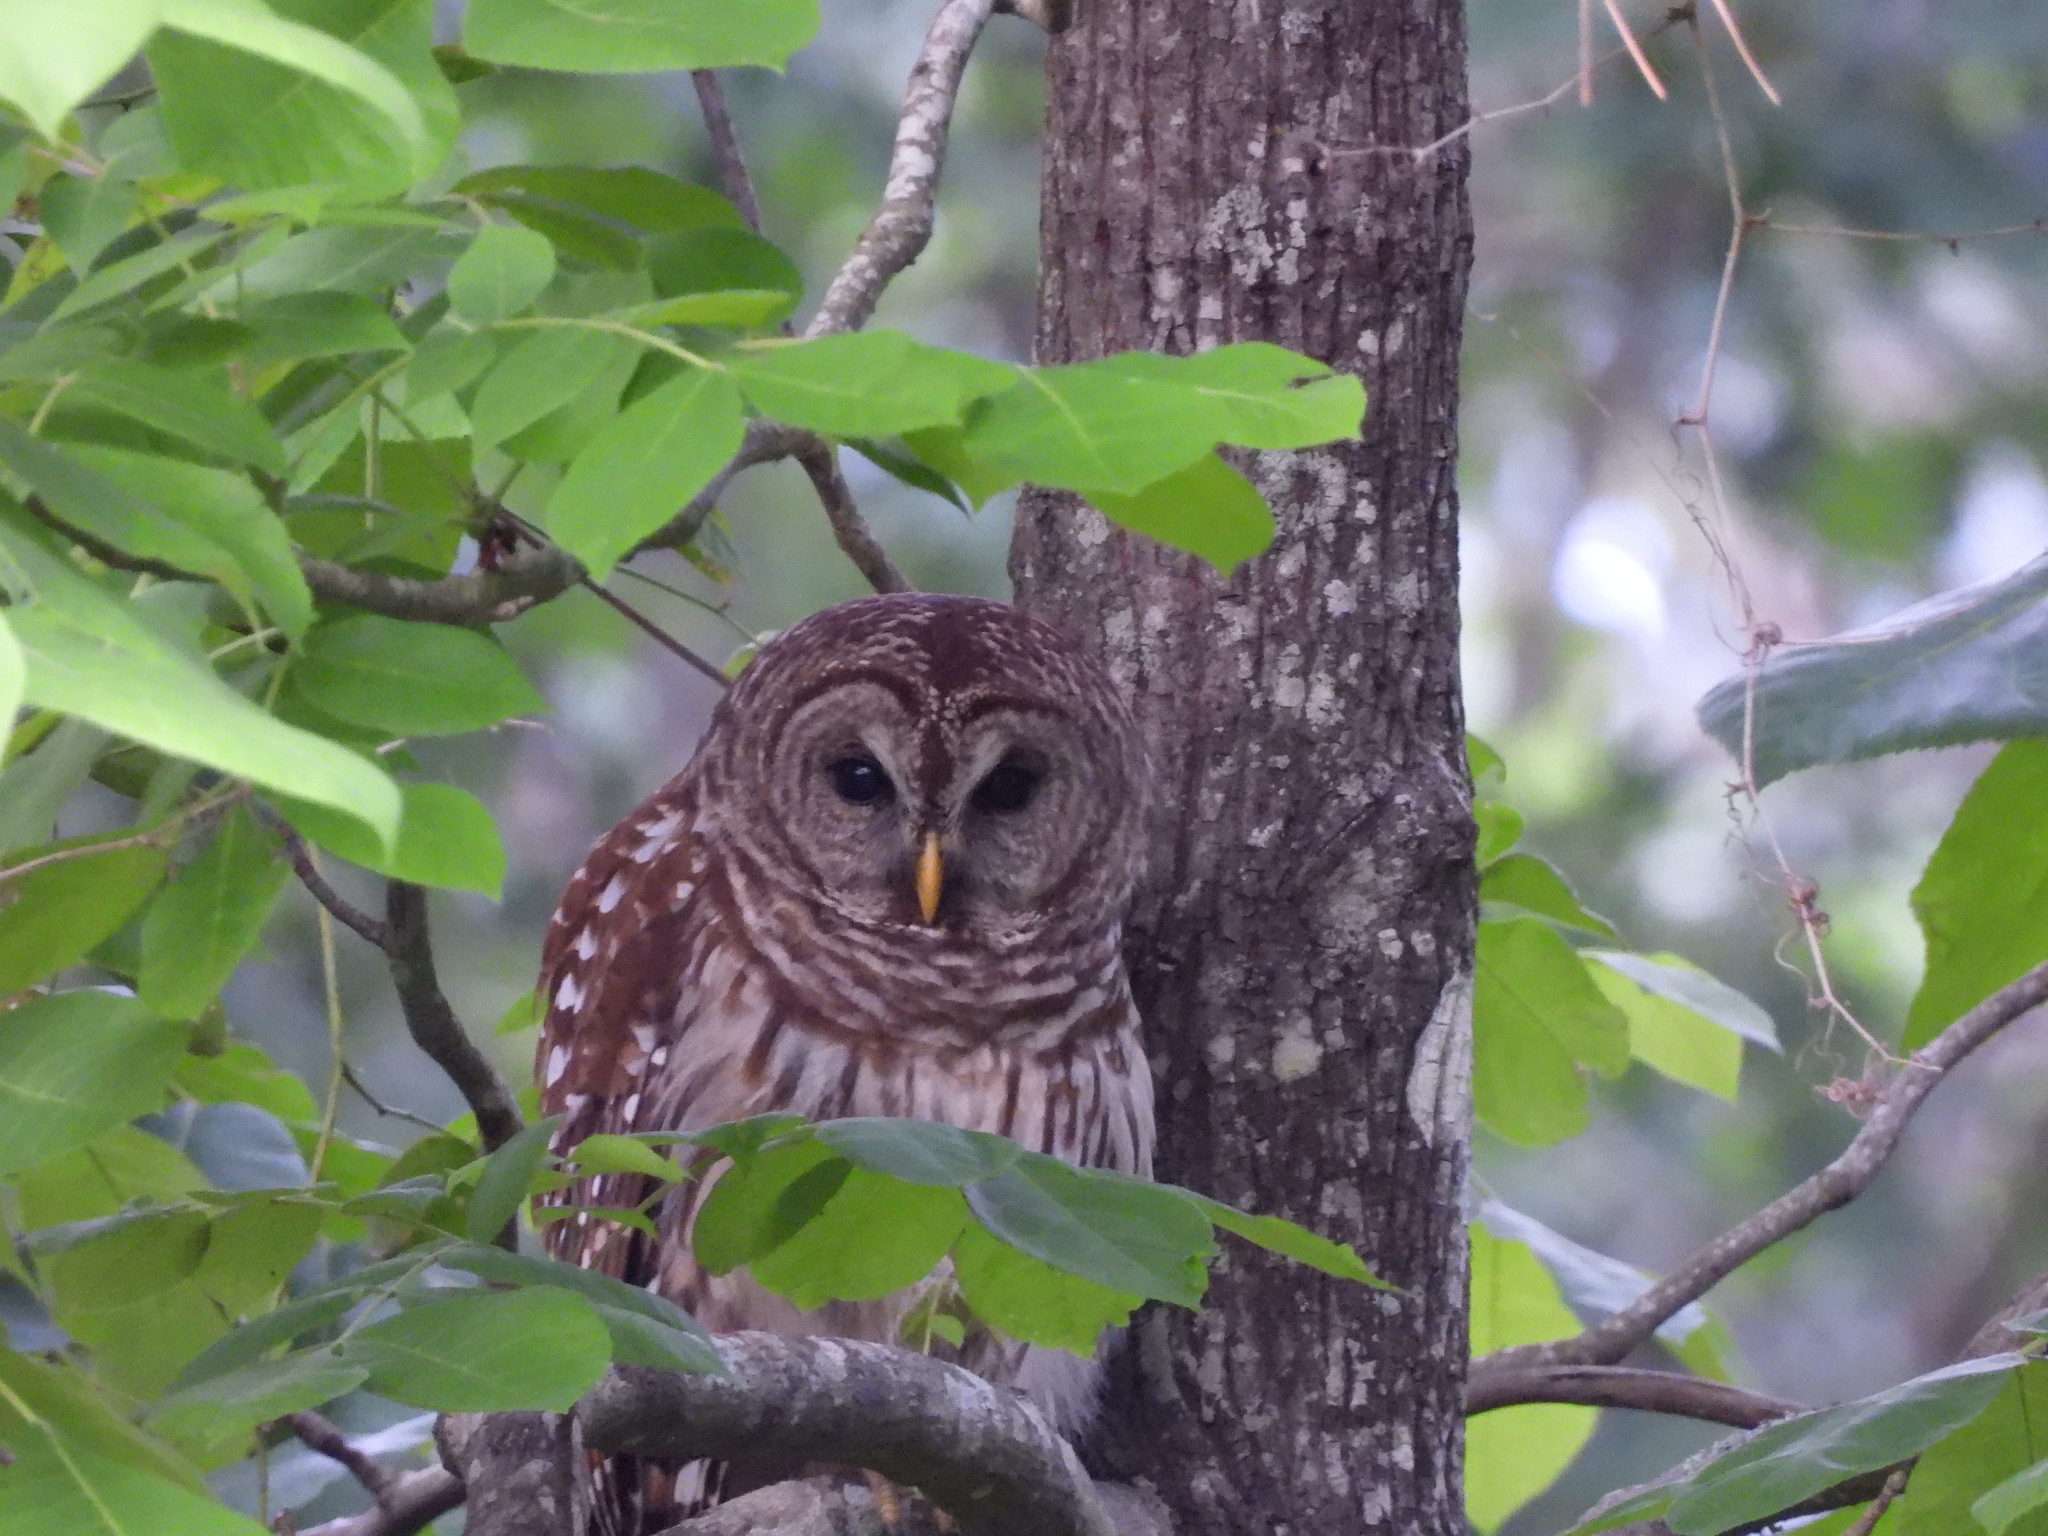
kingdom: Animalia
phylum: Chordata
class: Aves
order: Strigiformes
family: Strigidae
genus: Strix
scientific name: Strix varia
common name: Barred owl
